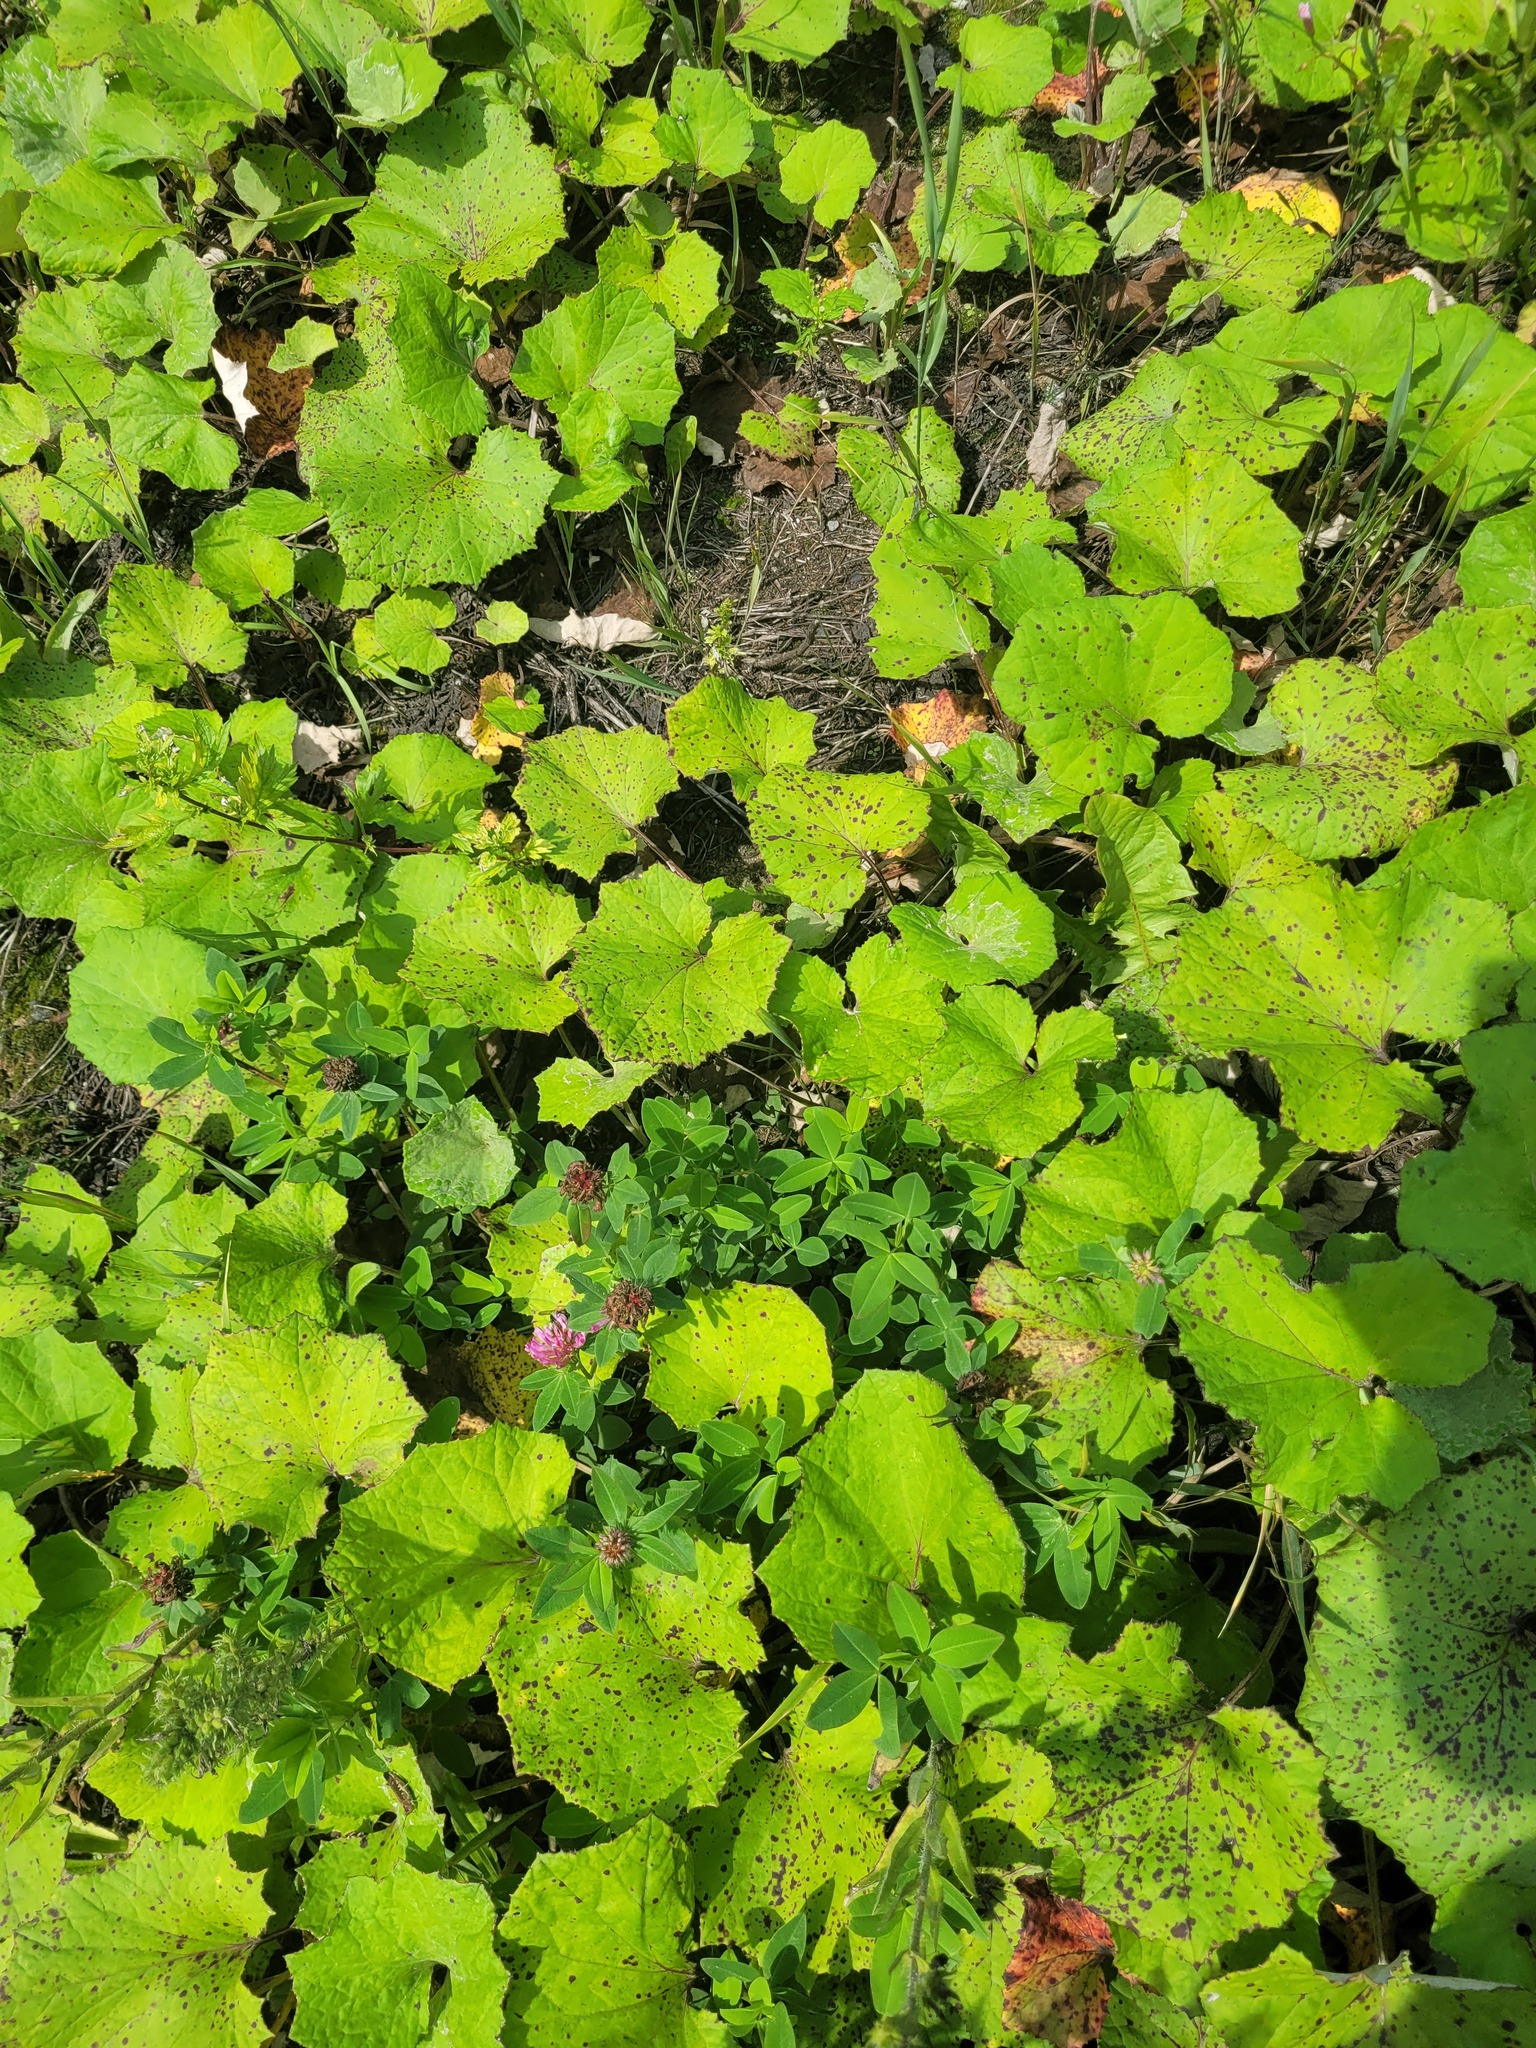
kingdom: Plantae
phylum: Tracheophyta
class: Magnoliopsida
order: Fabales
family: Fabaceae
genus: Trifolium
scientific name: Trifolium medium
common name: Zigzag clover
